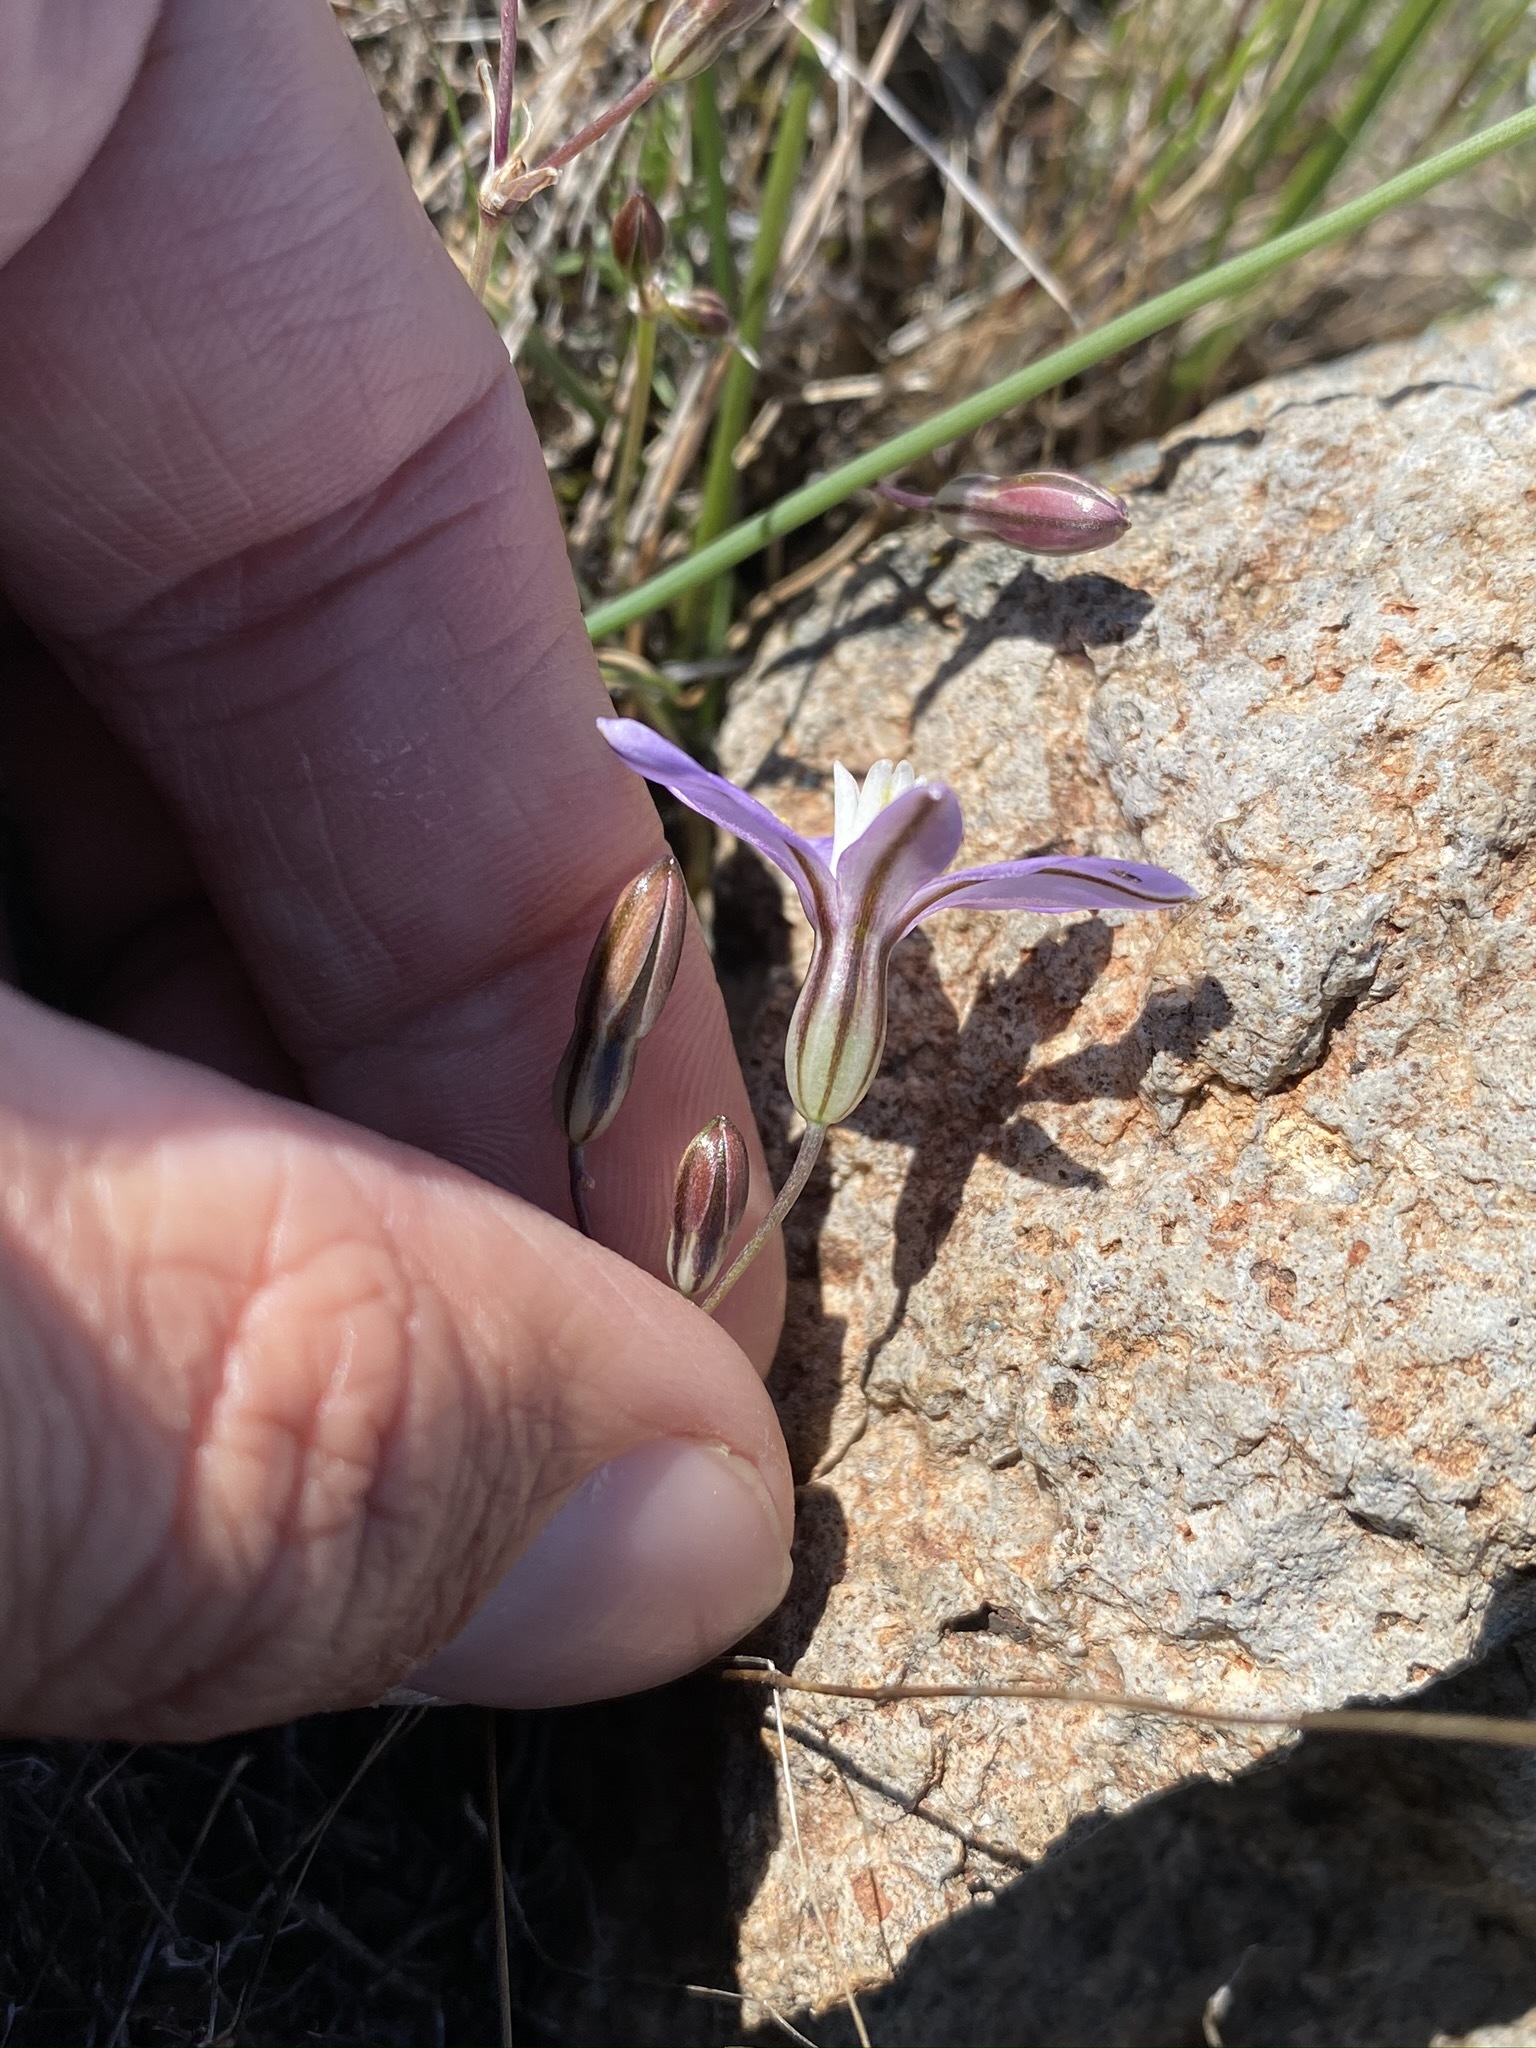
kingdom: Plantae
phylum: Tracheophyta
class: Liliopsida
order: Asparagales
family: Asparagaceae
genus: Brodiaea
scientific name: Brodiaea nana
